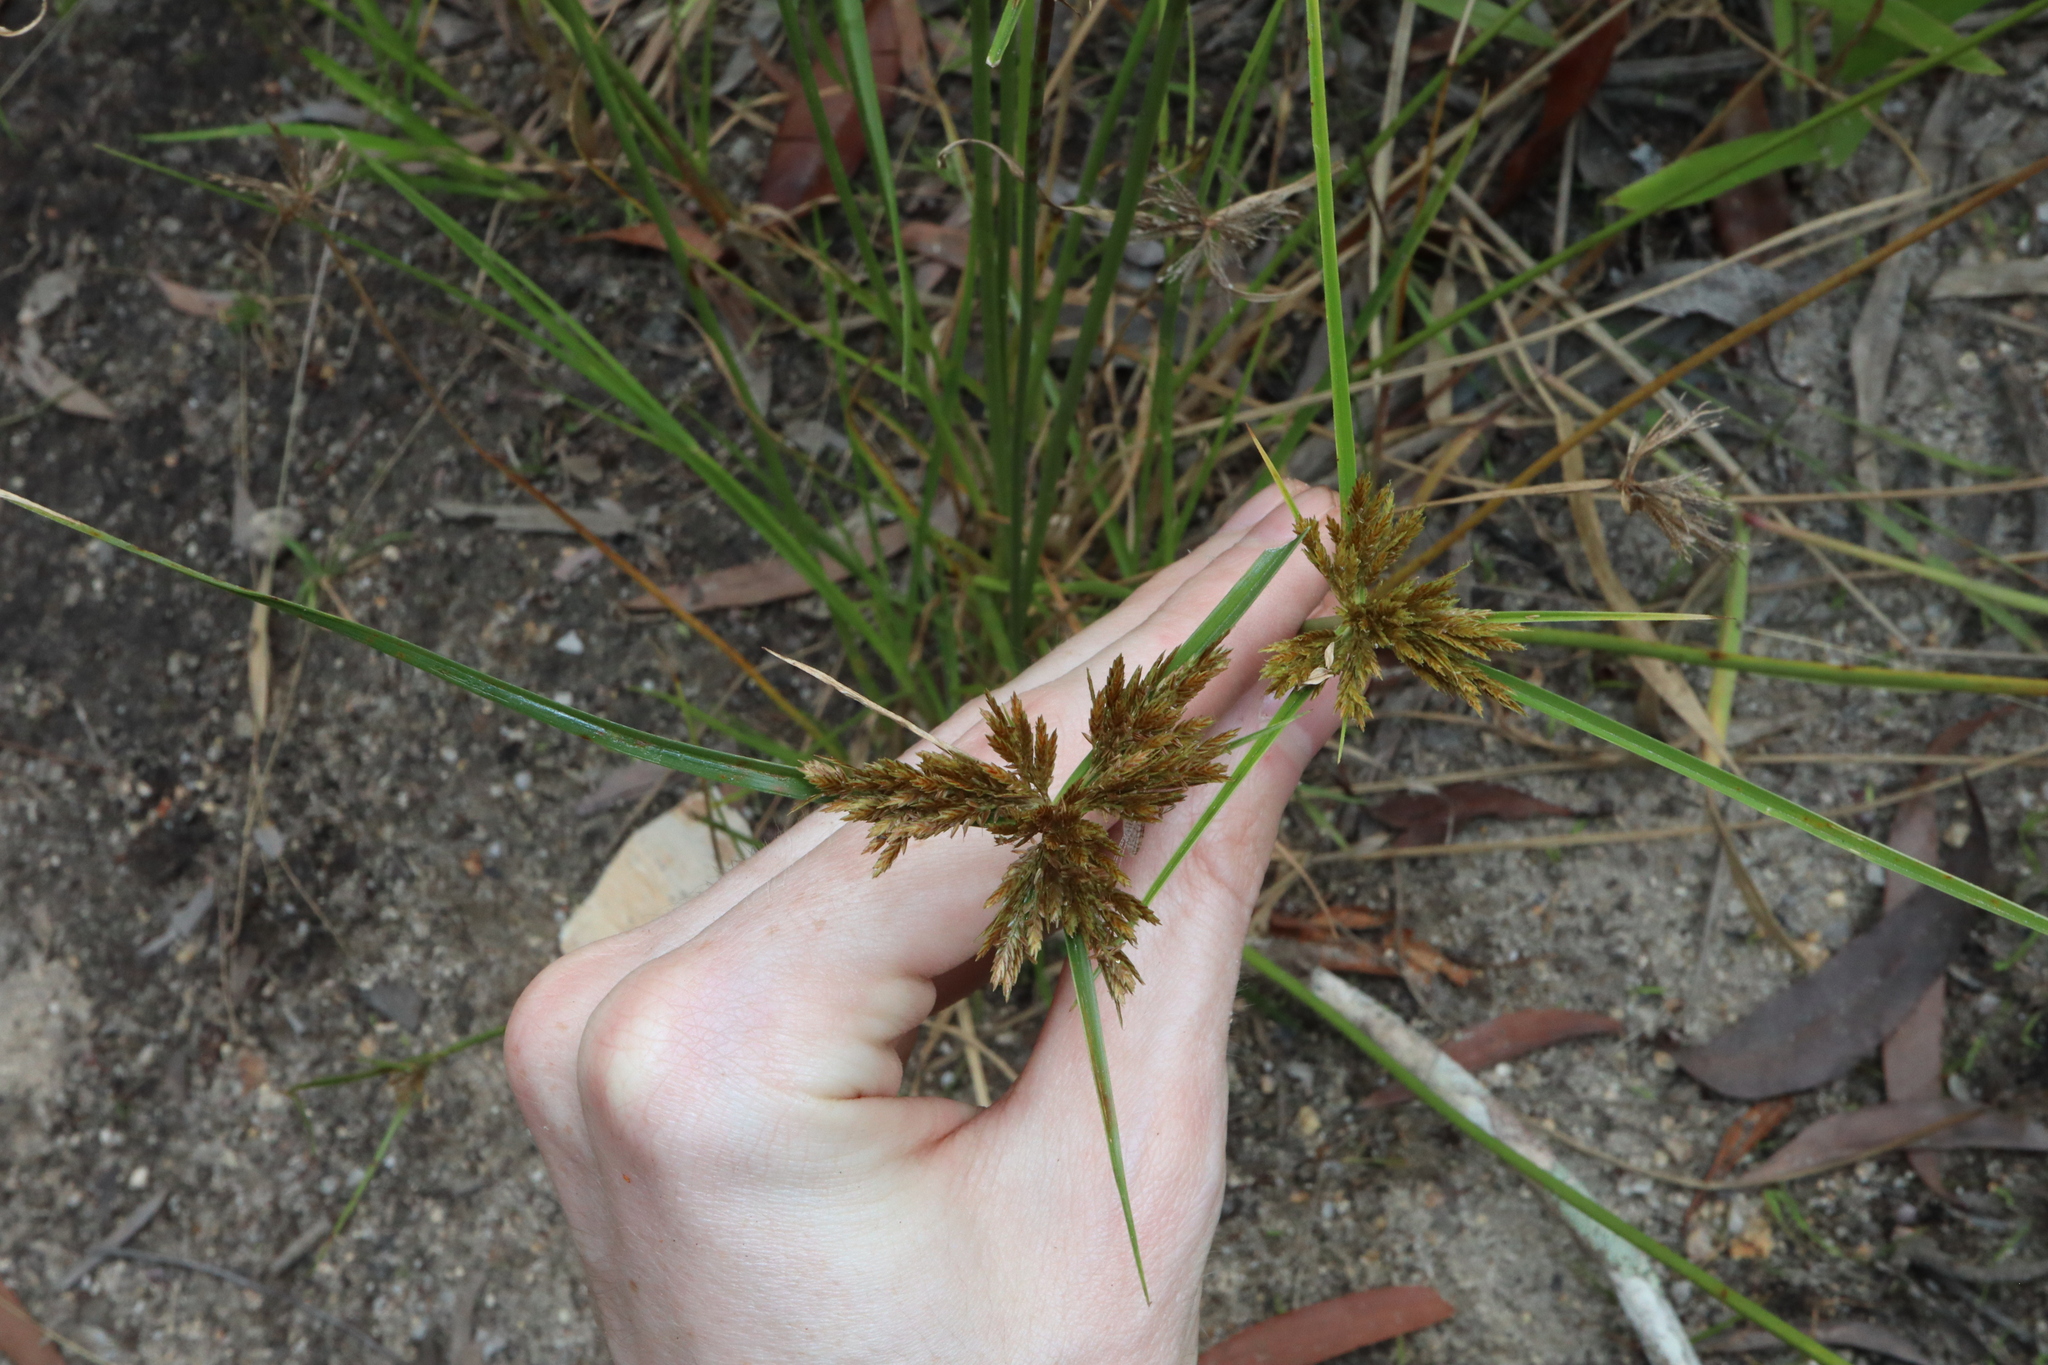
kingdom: Plantae
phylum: Tracheophyta
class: Liliopsida
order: Poales
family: Cyperaceae
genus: Cyperus
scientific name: Cyperus polystachyos
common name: Bunchy flat sedge
